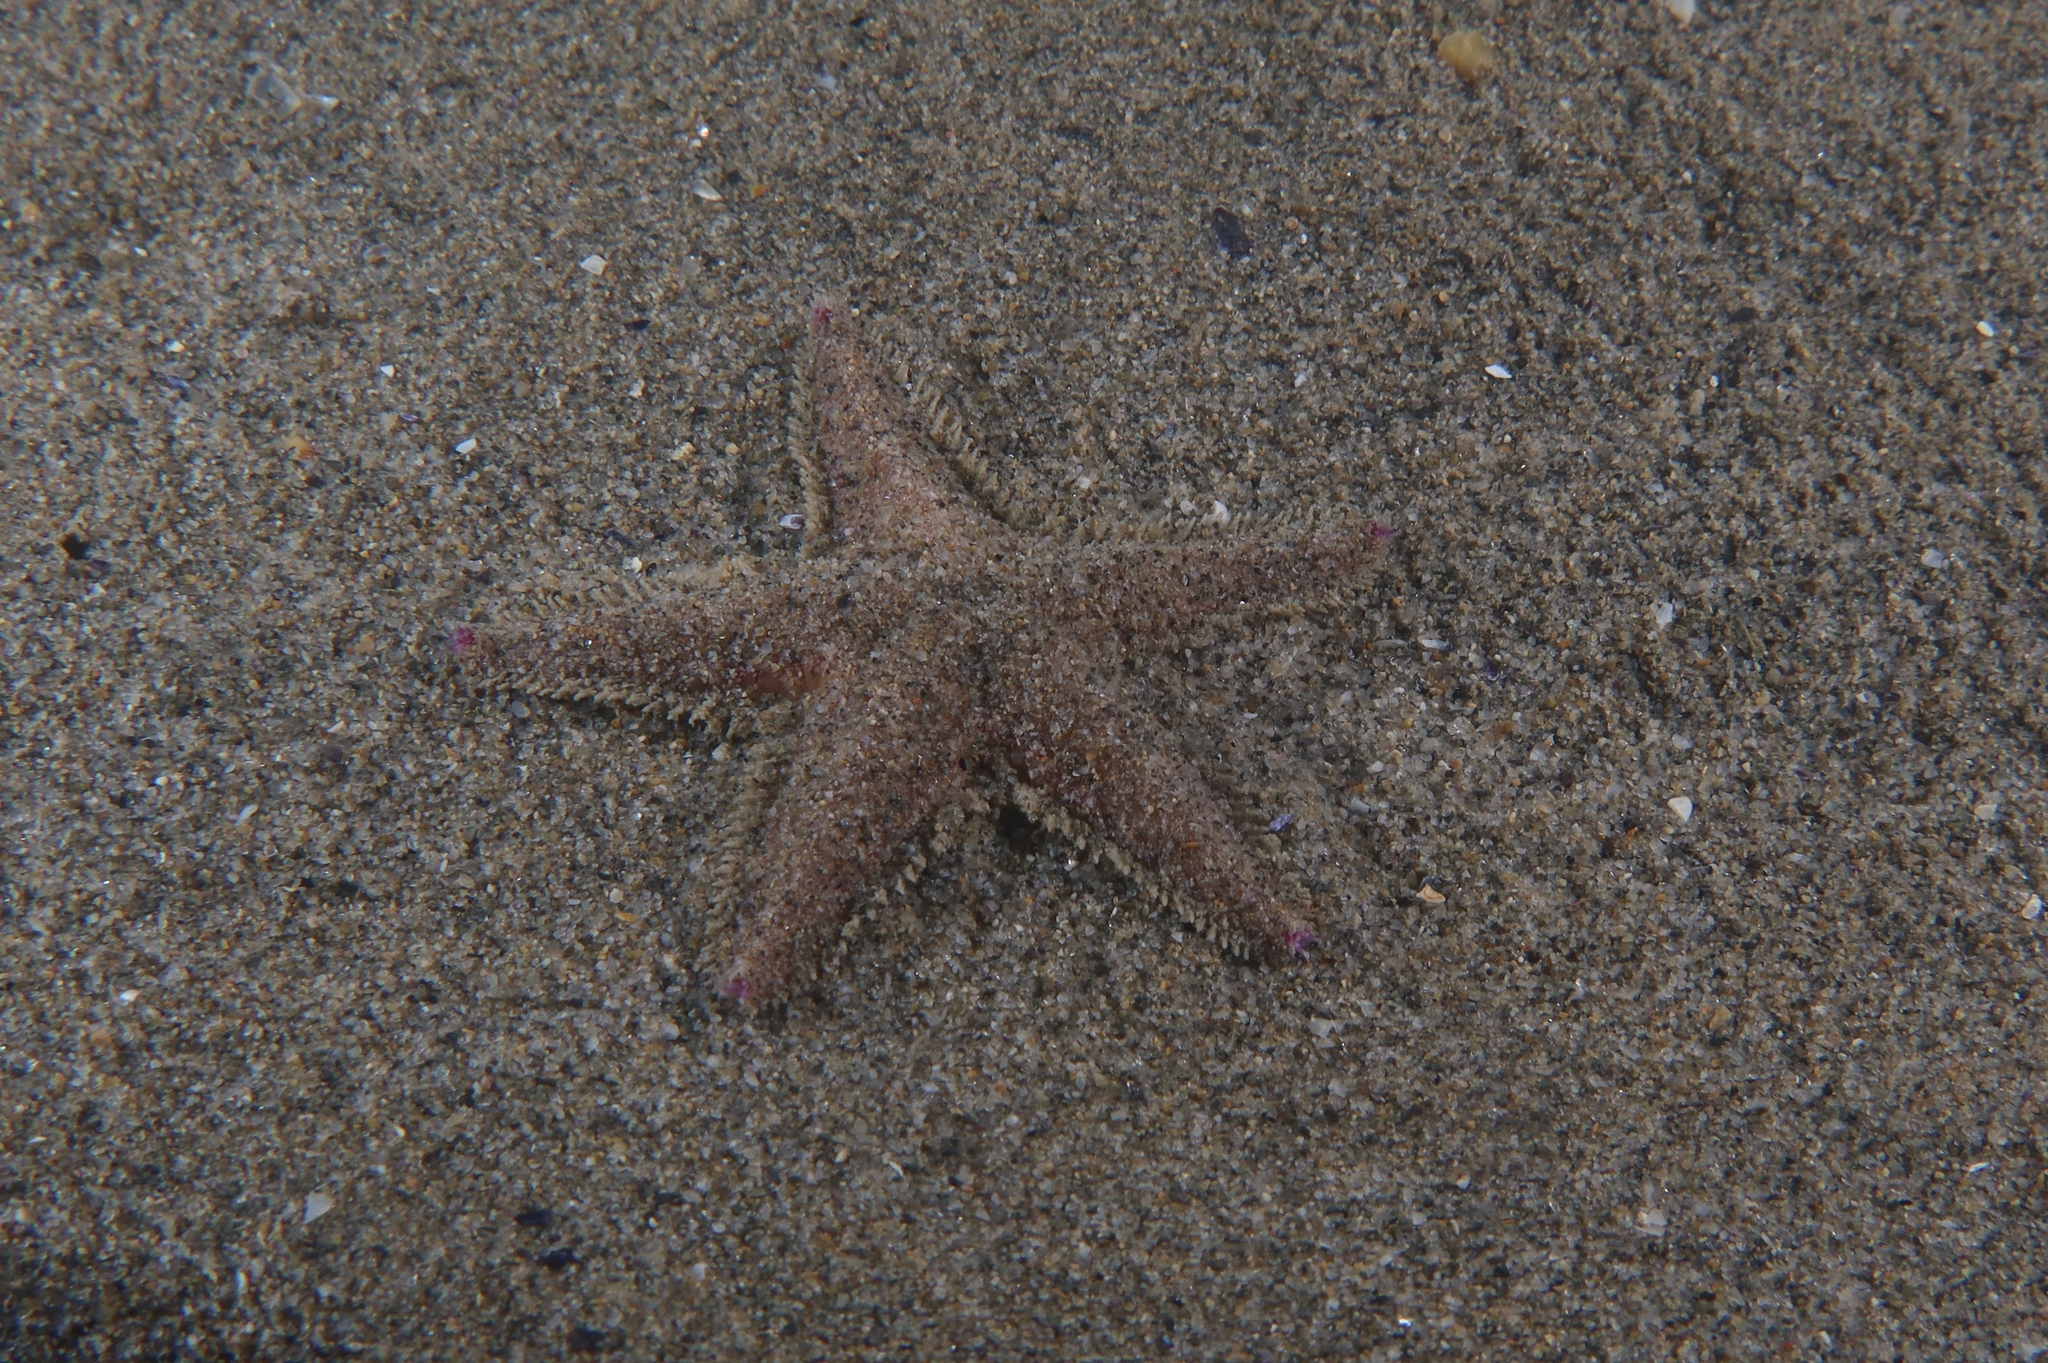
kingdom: Animalia
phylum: Echinodermata
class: Asteroidea
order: Paxillosida
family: Astropectinidae
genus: Astropecten
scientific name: Astropecten irregularis
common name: Sand star
